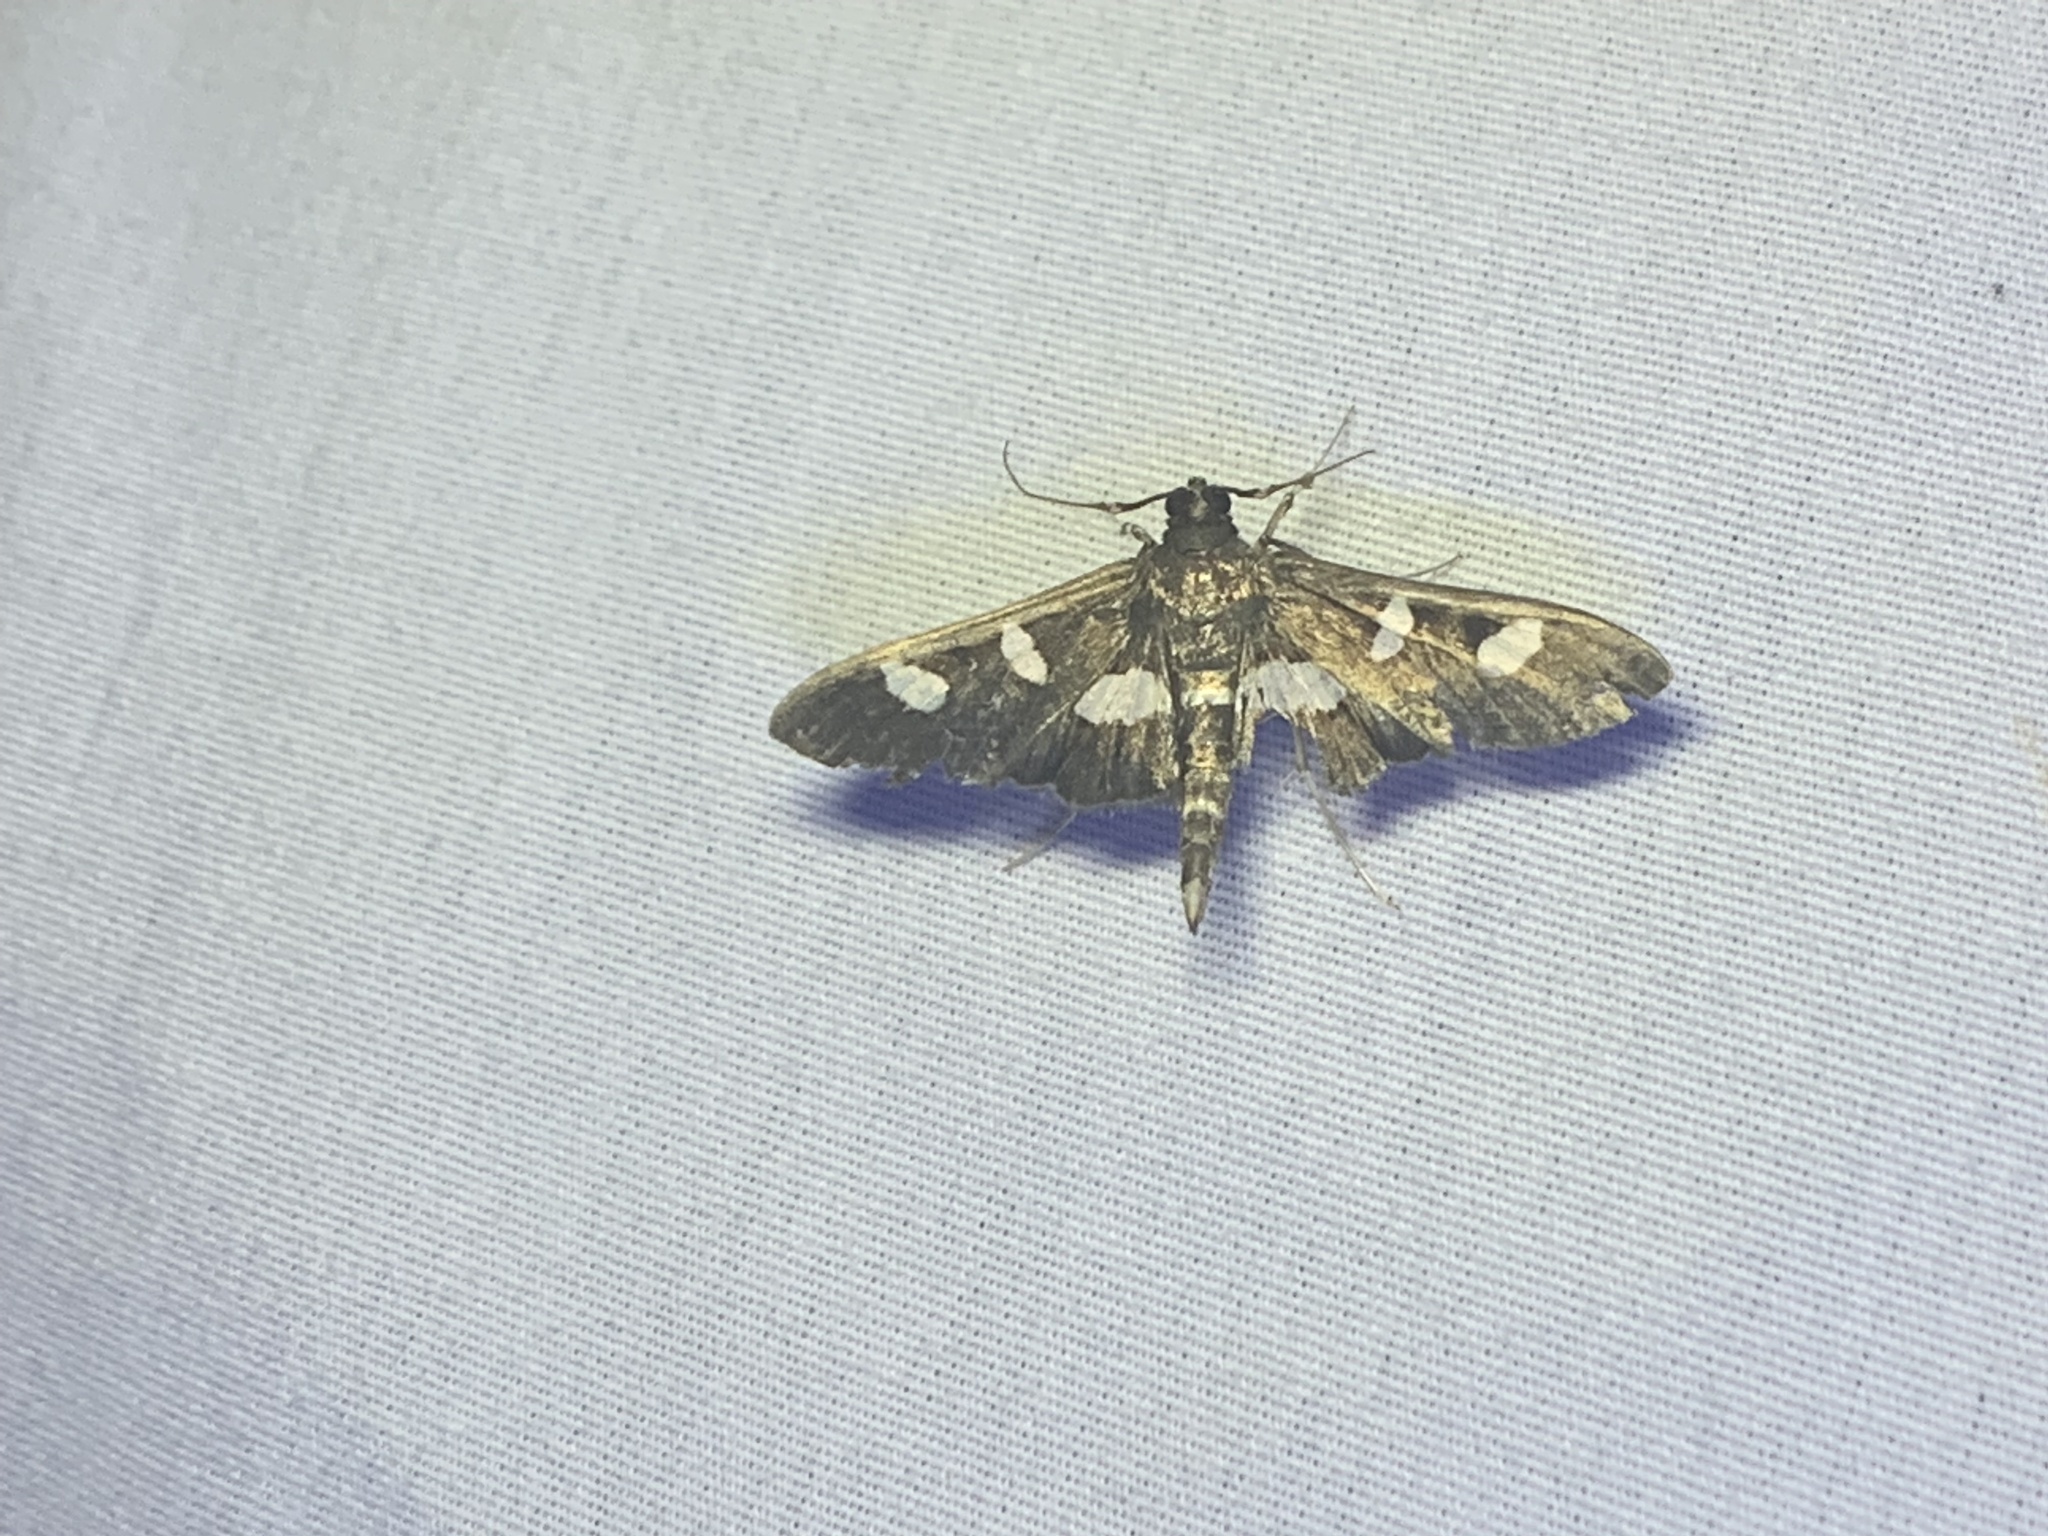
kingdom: Animalia
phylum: Arthropoda
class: Insecta
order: Lepidoptera
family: Crambidae
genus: Desmia
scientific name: Desmia
